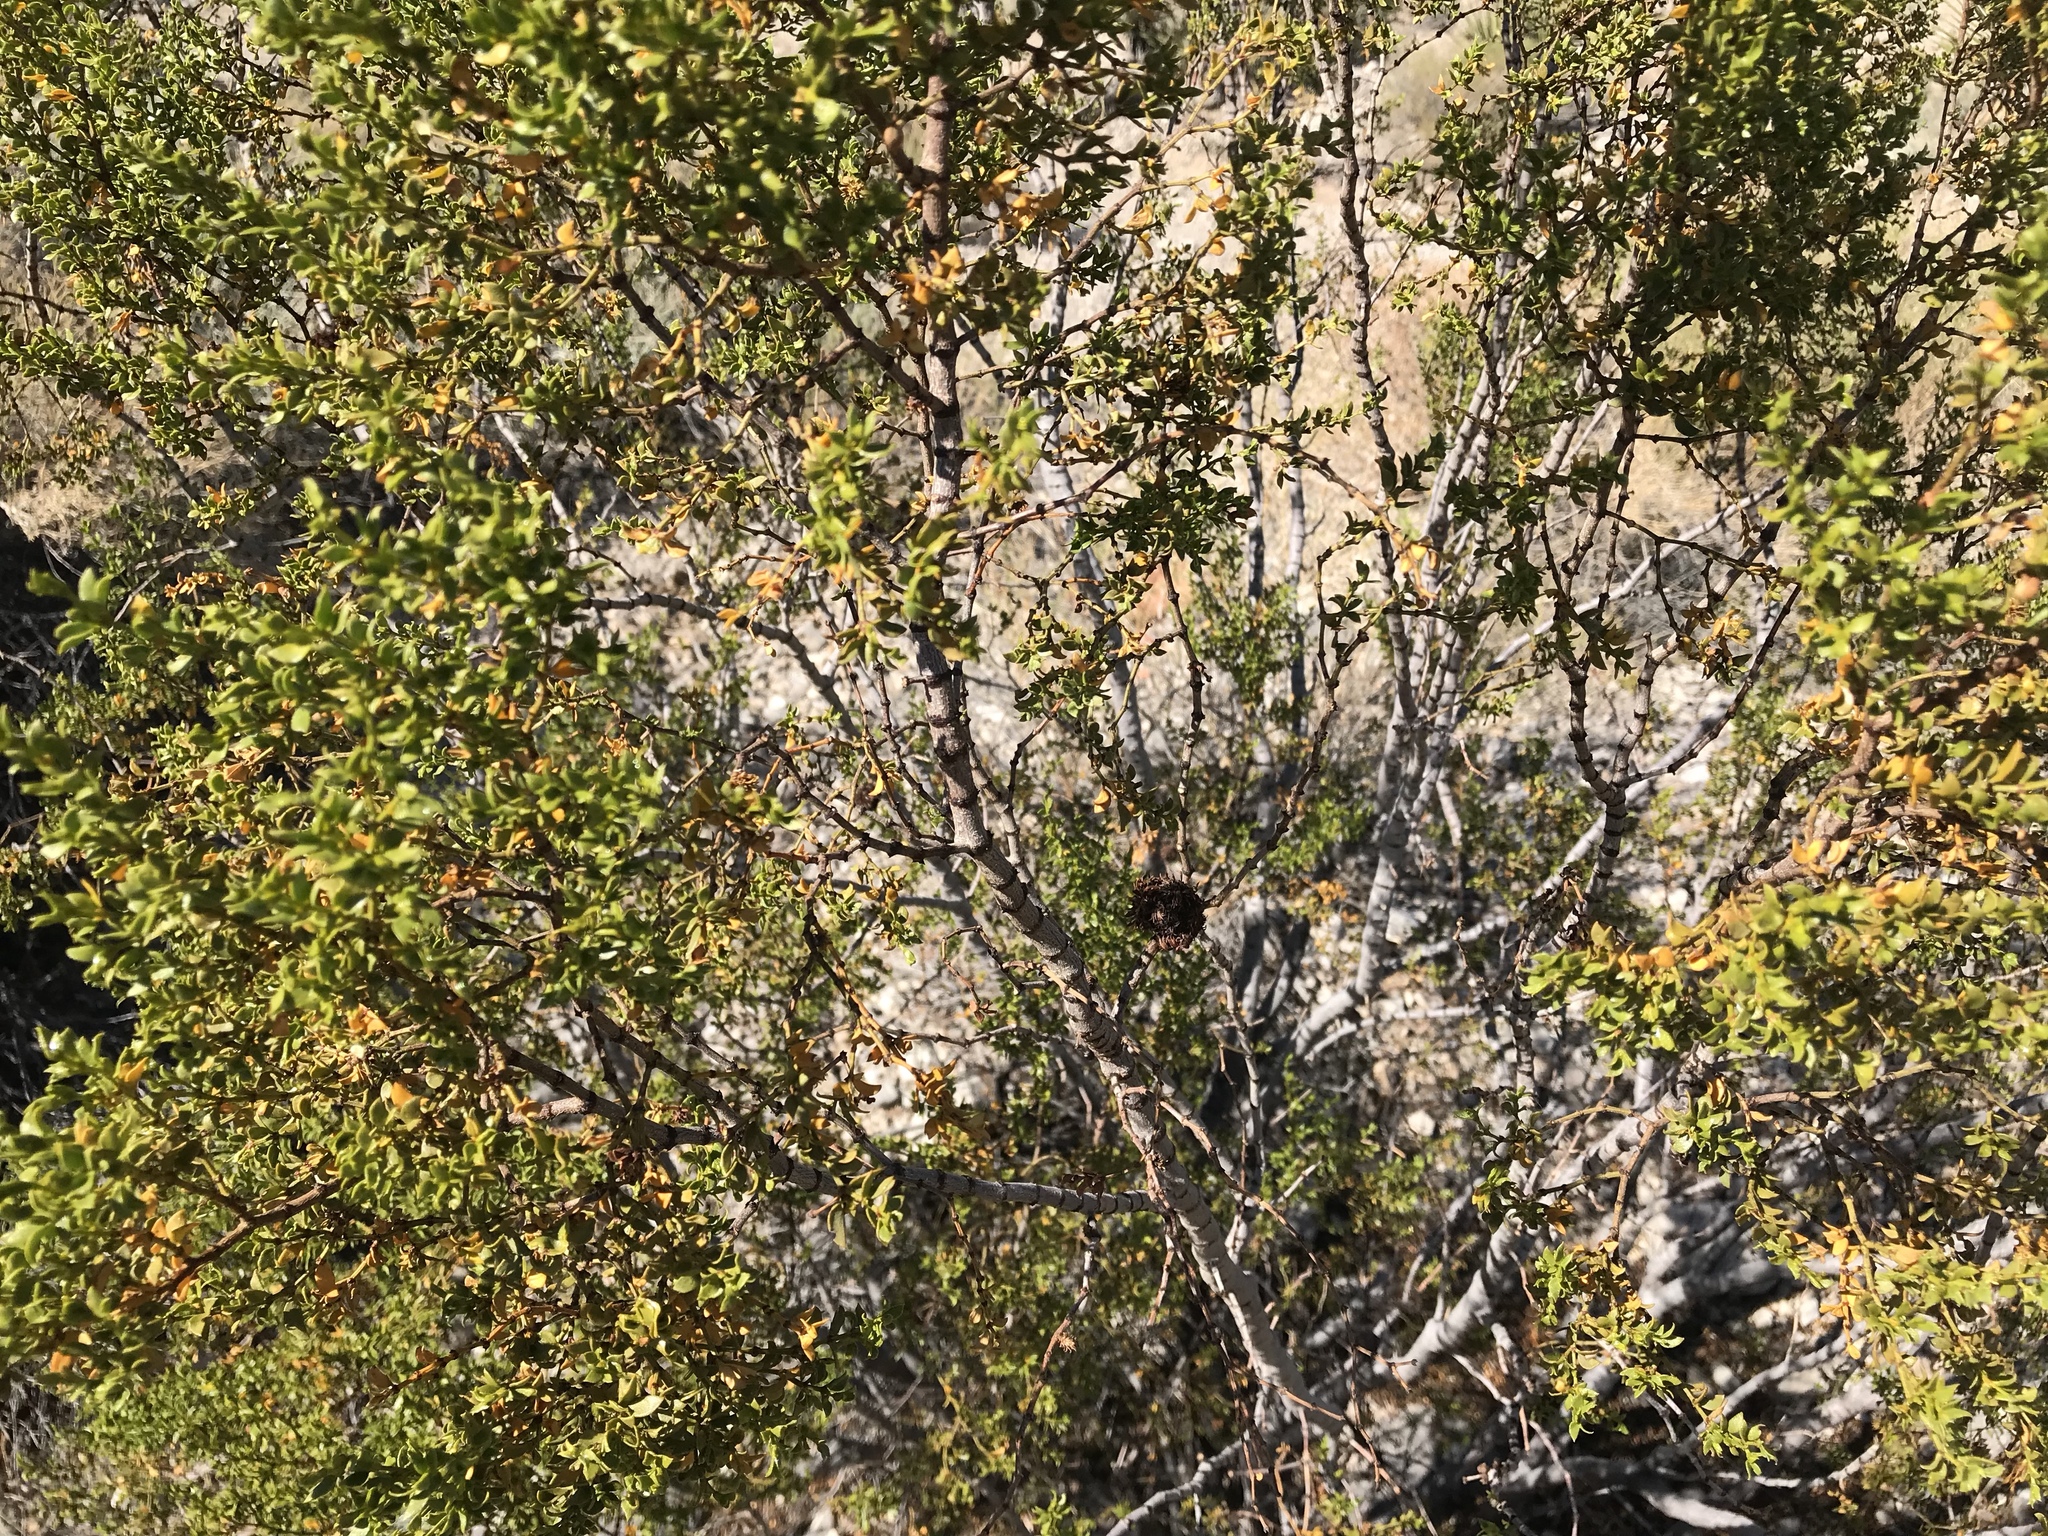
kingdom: Animalia
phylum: Arthropoda
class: Insecta
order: Diptera
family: Cecidomyiidae
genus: Asphondylia
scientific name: Asphondylia auripila
